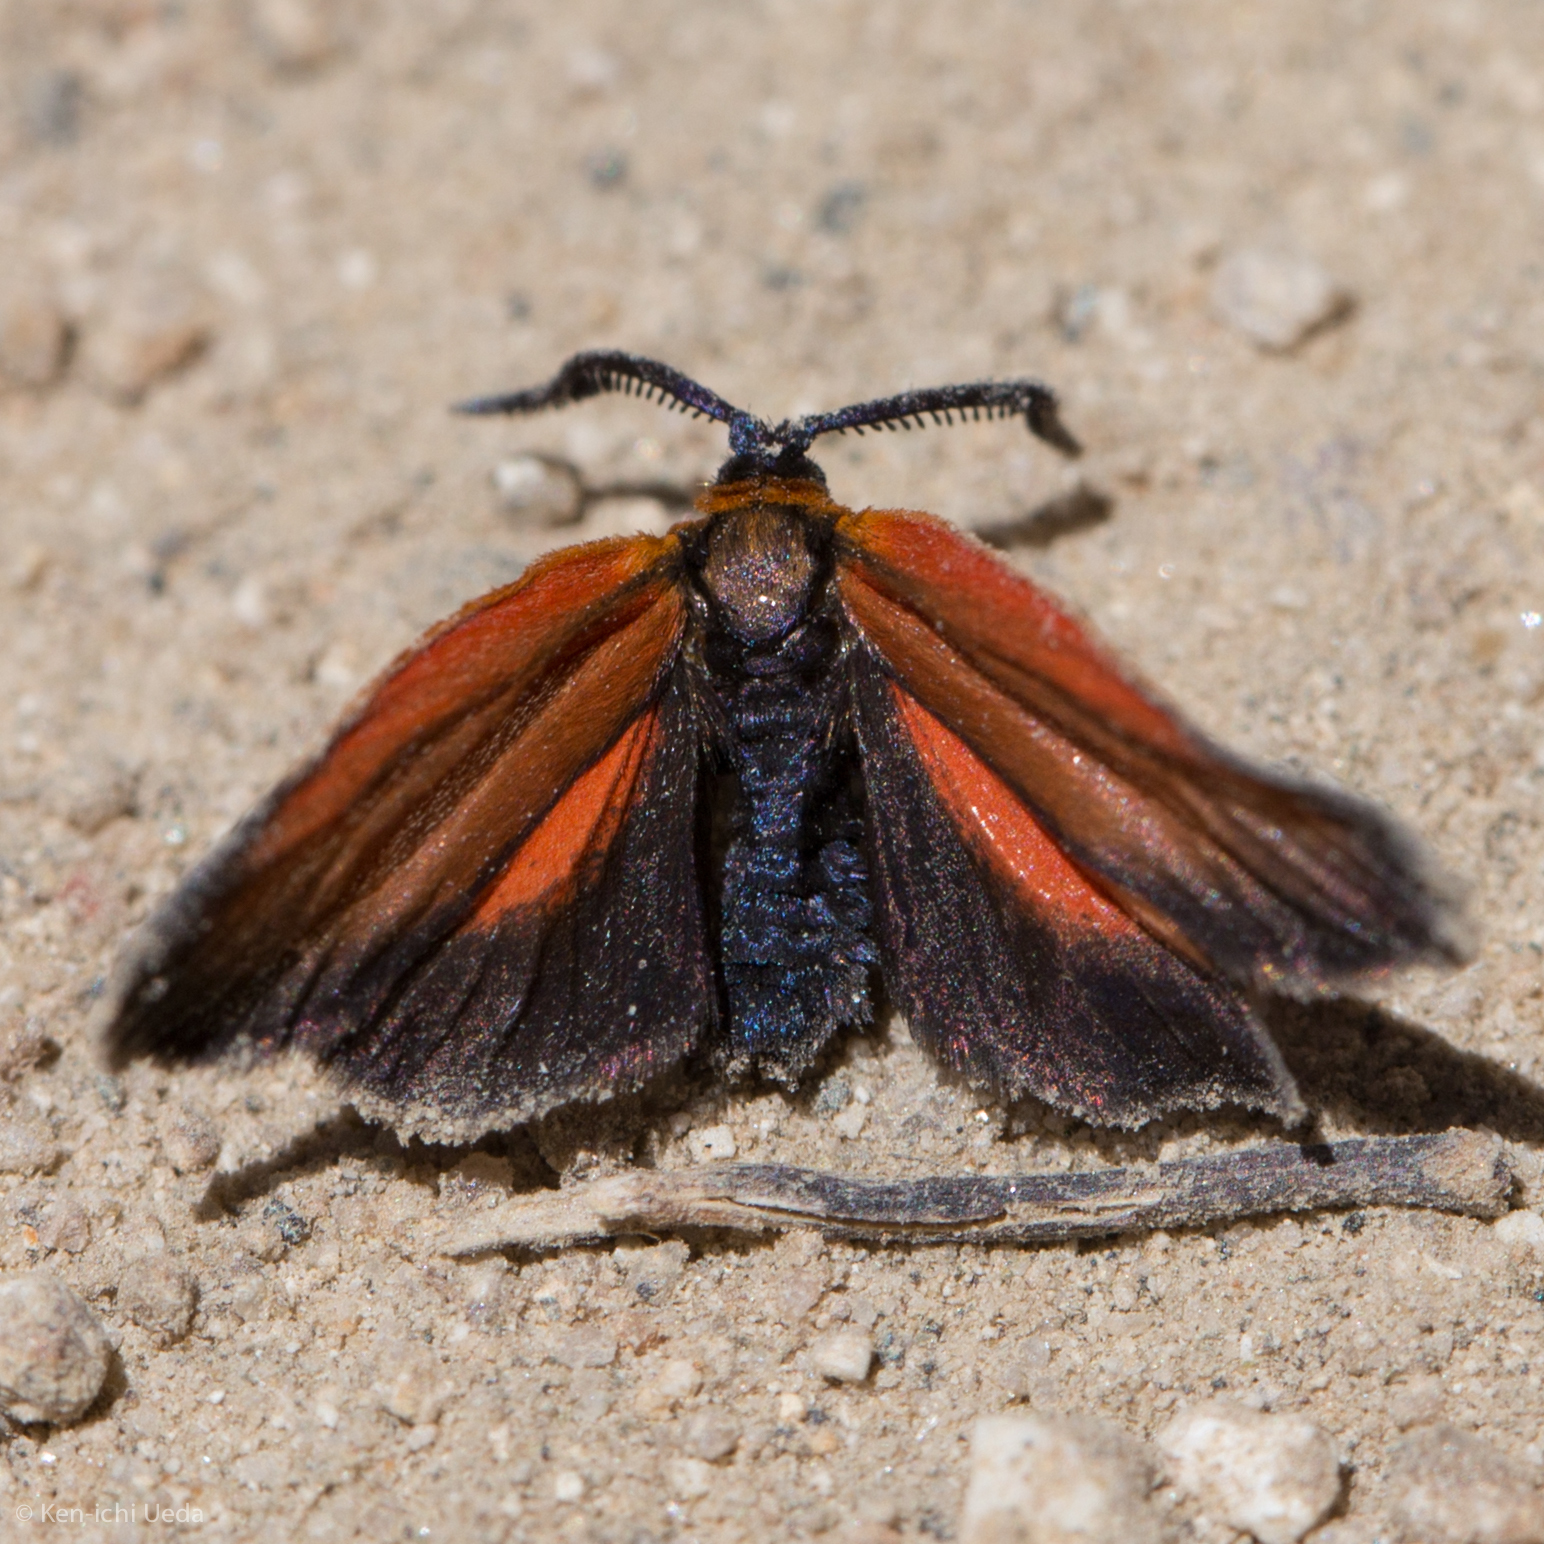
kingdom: Animalia
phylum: Arthropoda
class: Insecta
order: Lepidoptera
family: Zygaenidae
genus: Malthaca
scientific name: Malthaca Pyromorpha dyari
